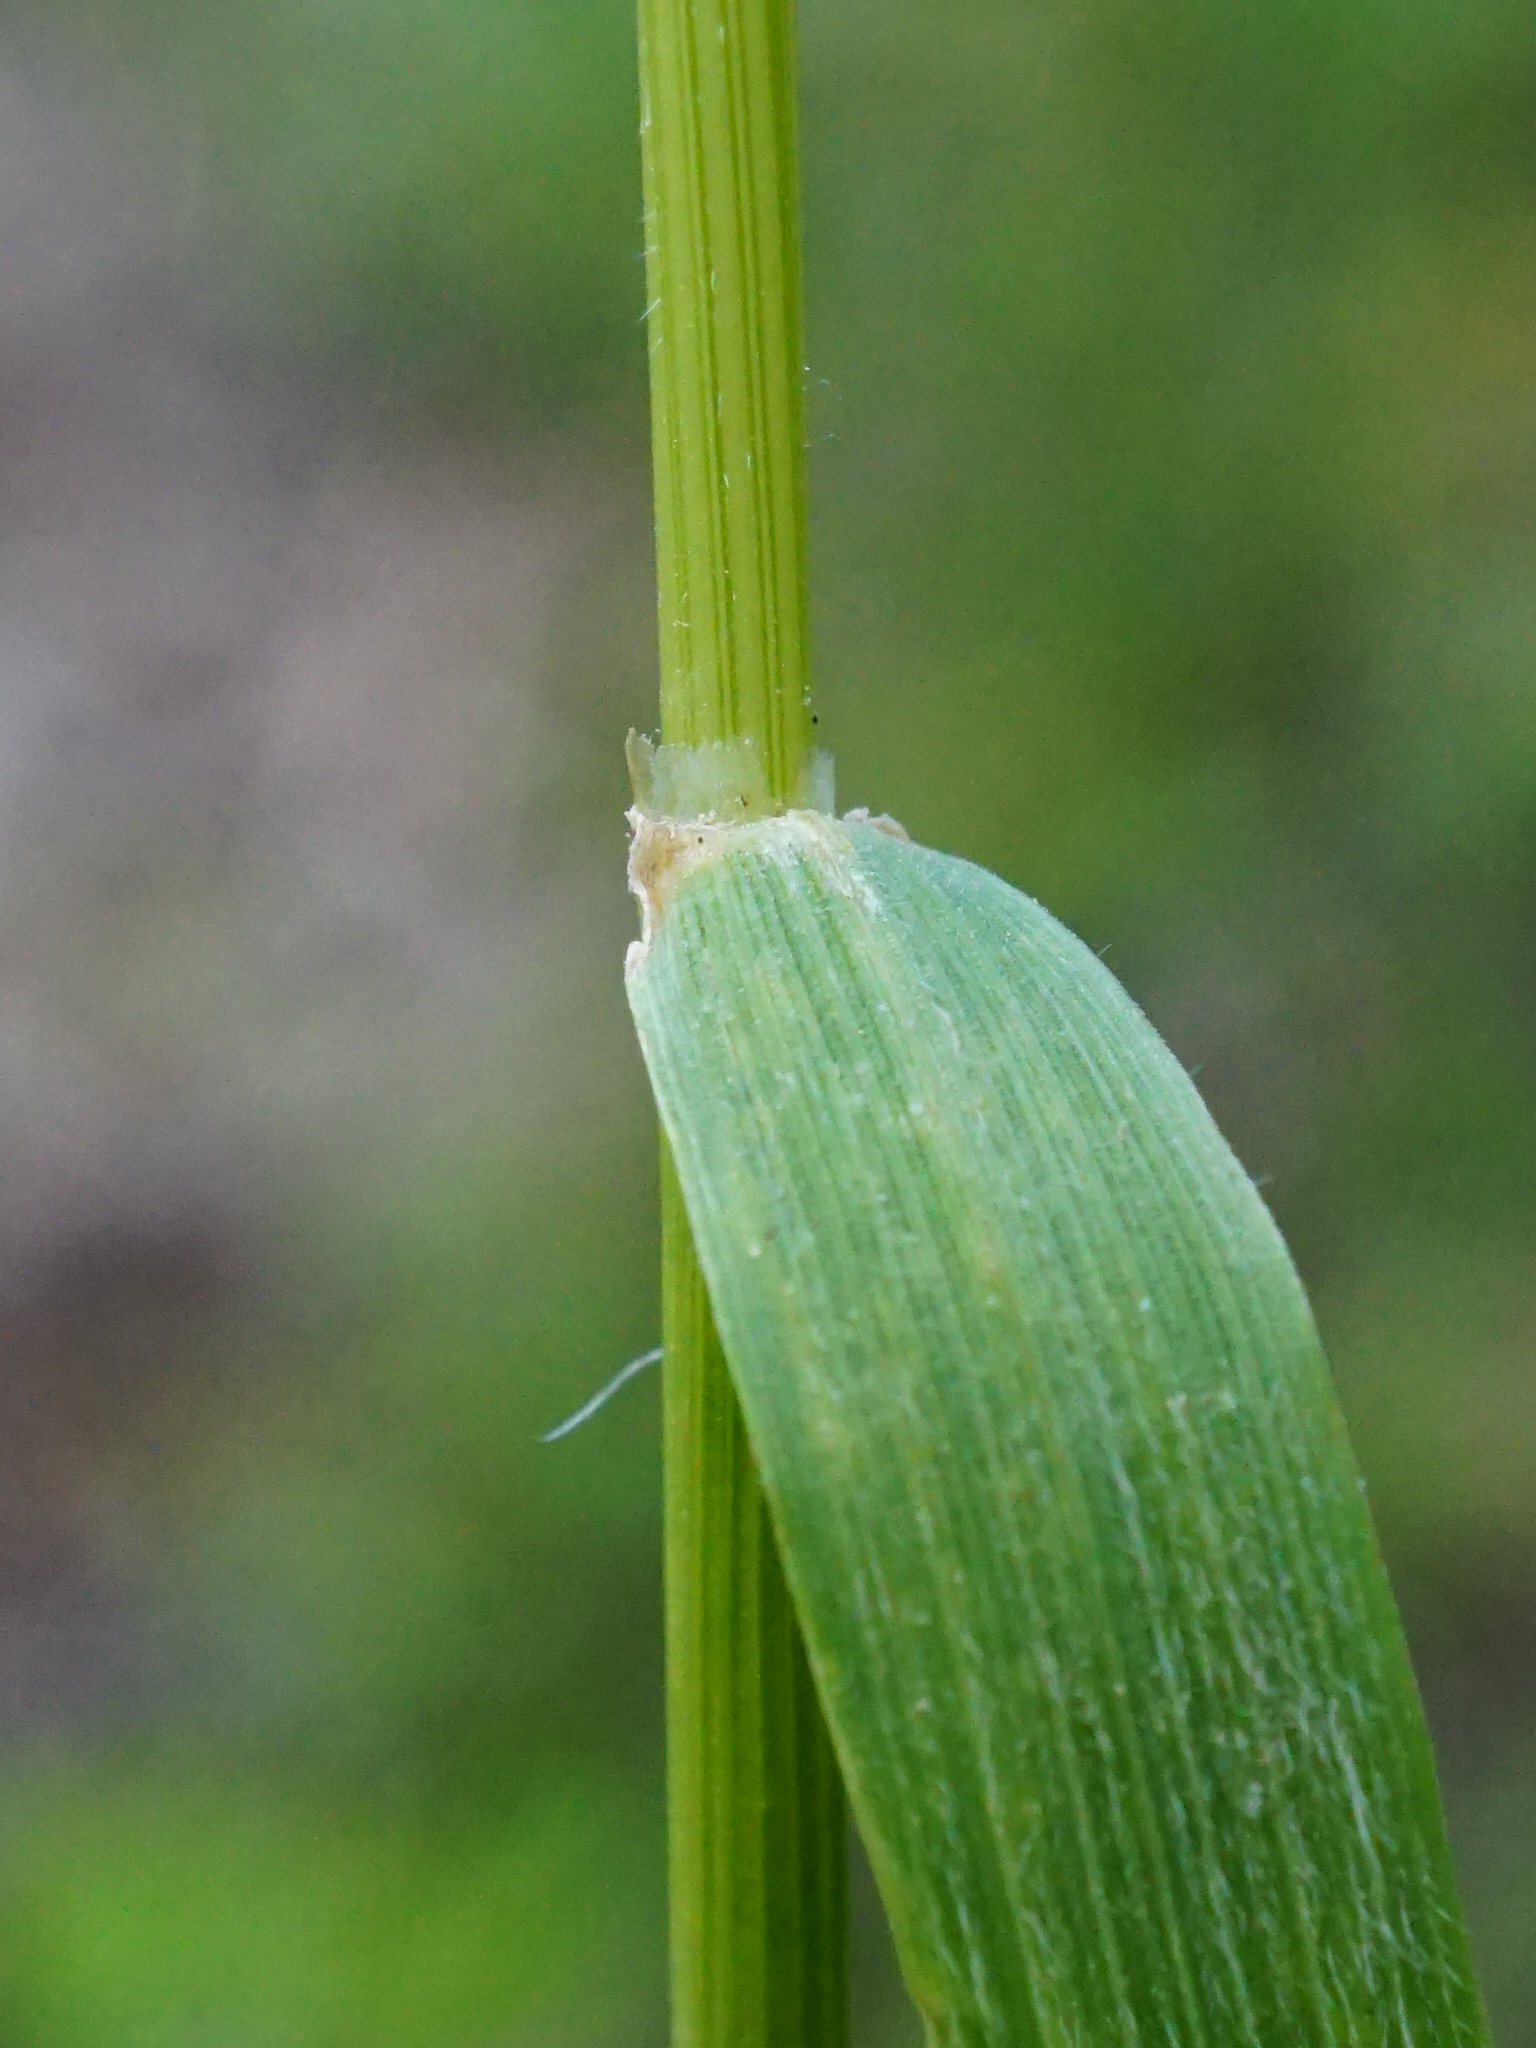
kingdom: Plantae
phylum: Tracheophyta
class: Liliopsida
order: Poales
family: Poaceae
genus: Trisetum
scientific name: Trisetum flavescens
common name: Yellow oat-grass
